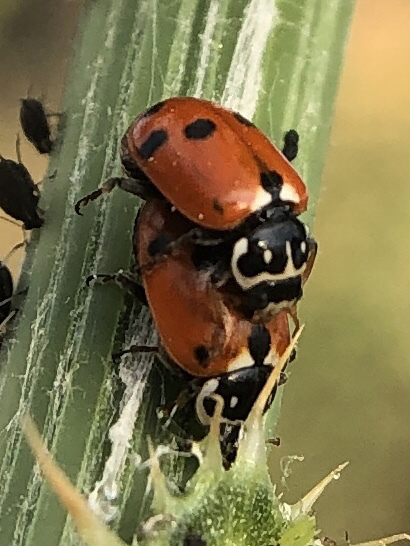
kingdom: Animalia
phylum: Arthropoda
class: Insecta
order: Coleoptera
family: Coccinellidae
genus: Hippodamia
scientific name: Hippodamia variegata
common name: Ladybird beetle
